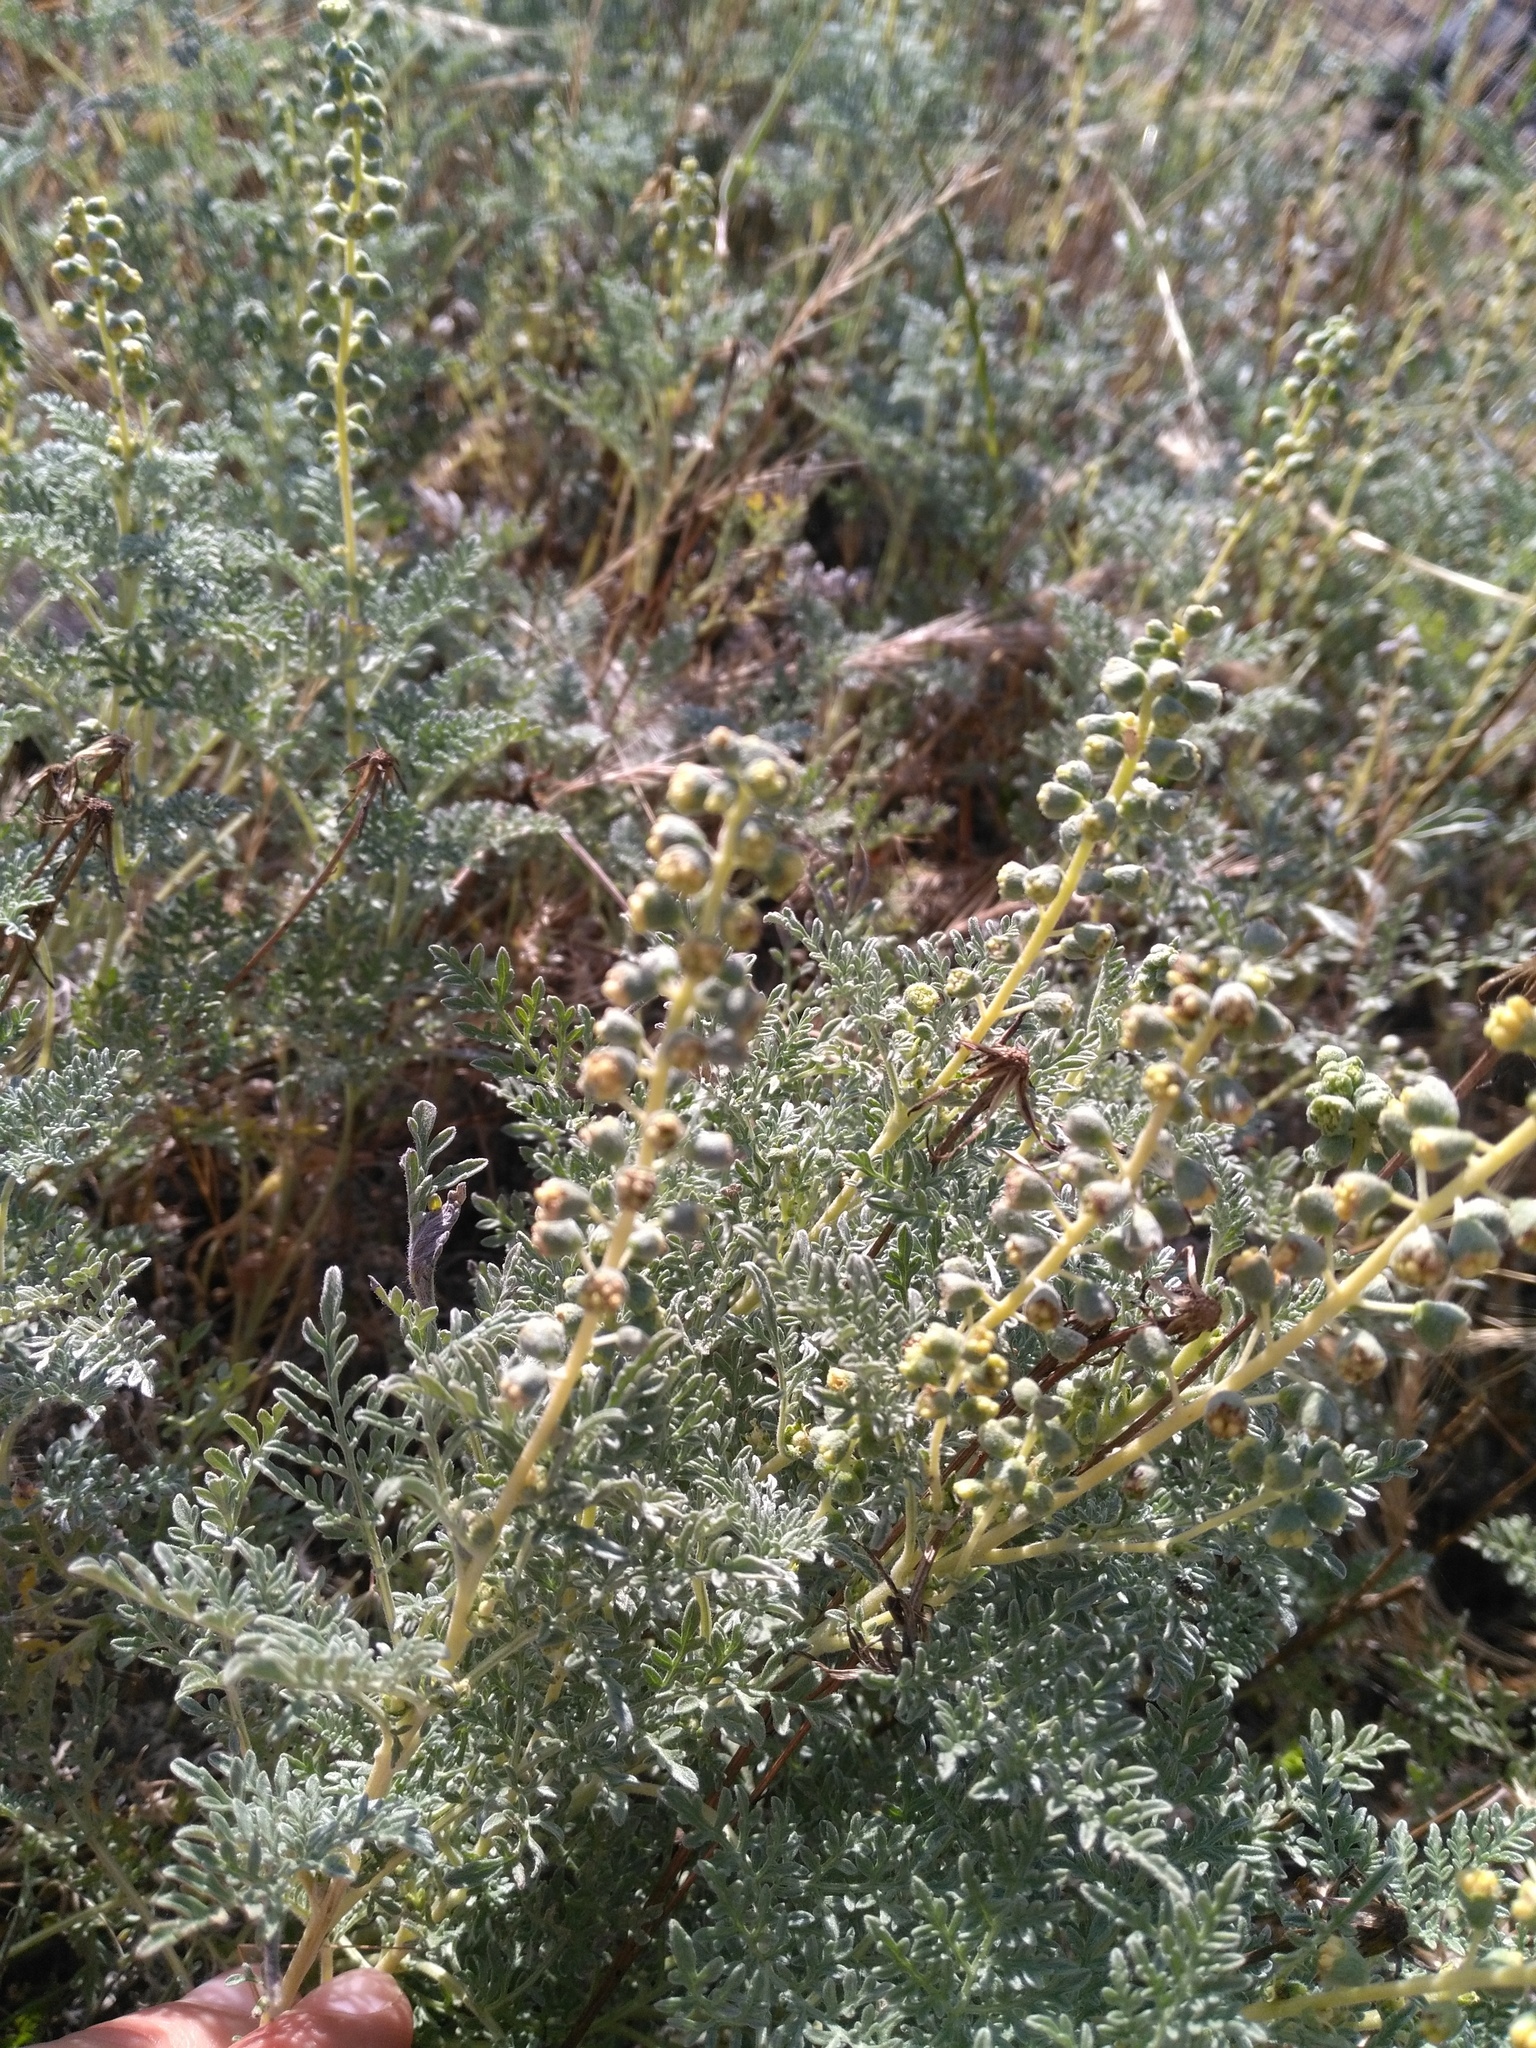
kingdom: Plantae
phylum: Tracheophyta
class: Magnoliopsida
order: Asterales
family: Asteraceae
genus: Ambrosia
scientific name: Ambrosia pumila
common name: San diego ambrosia
